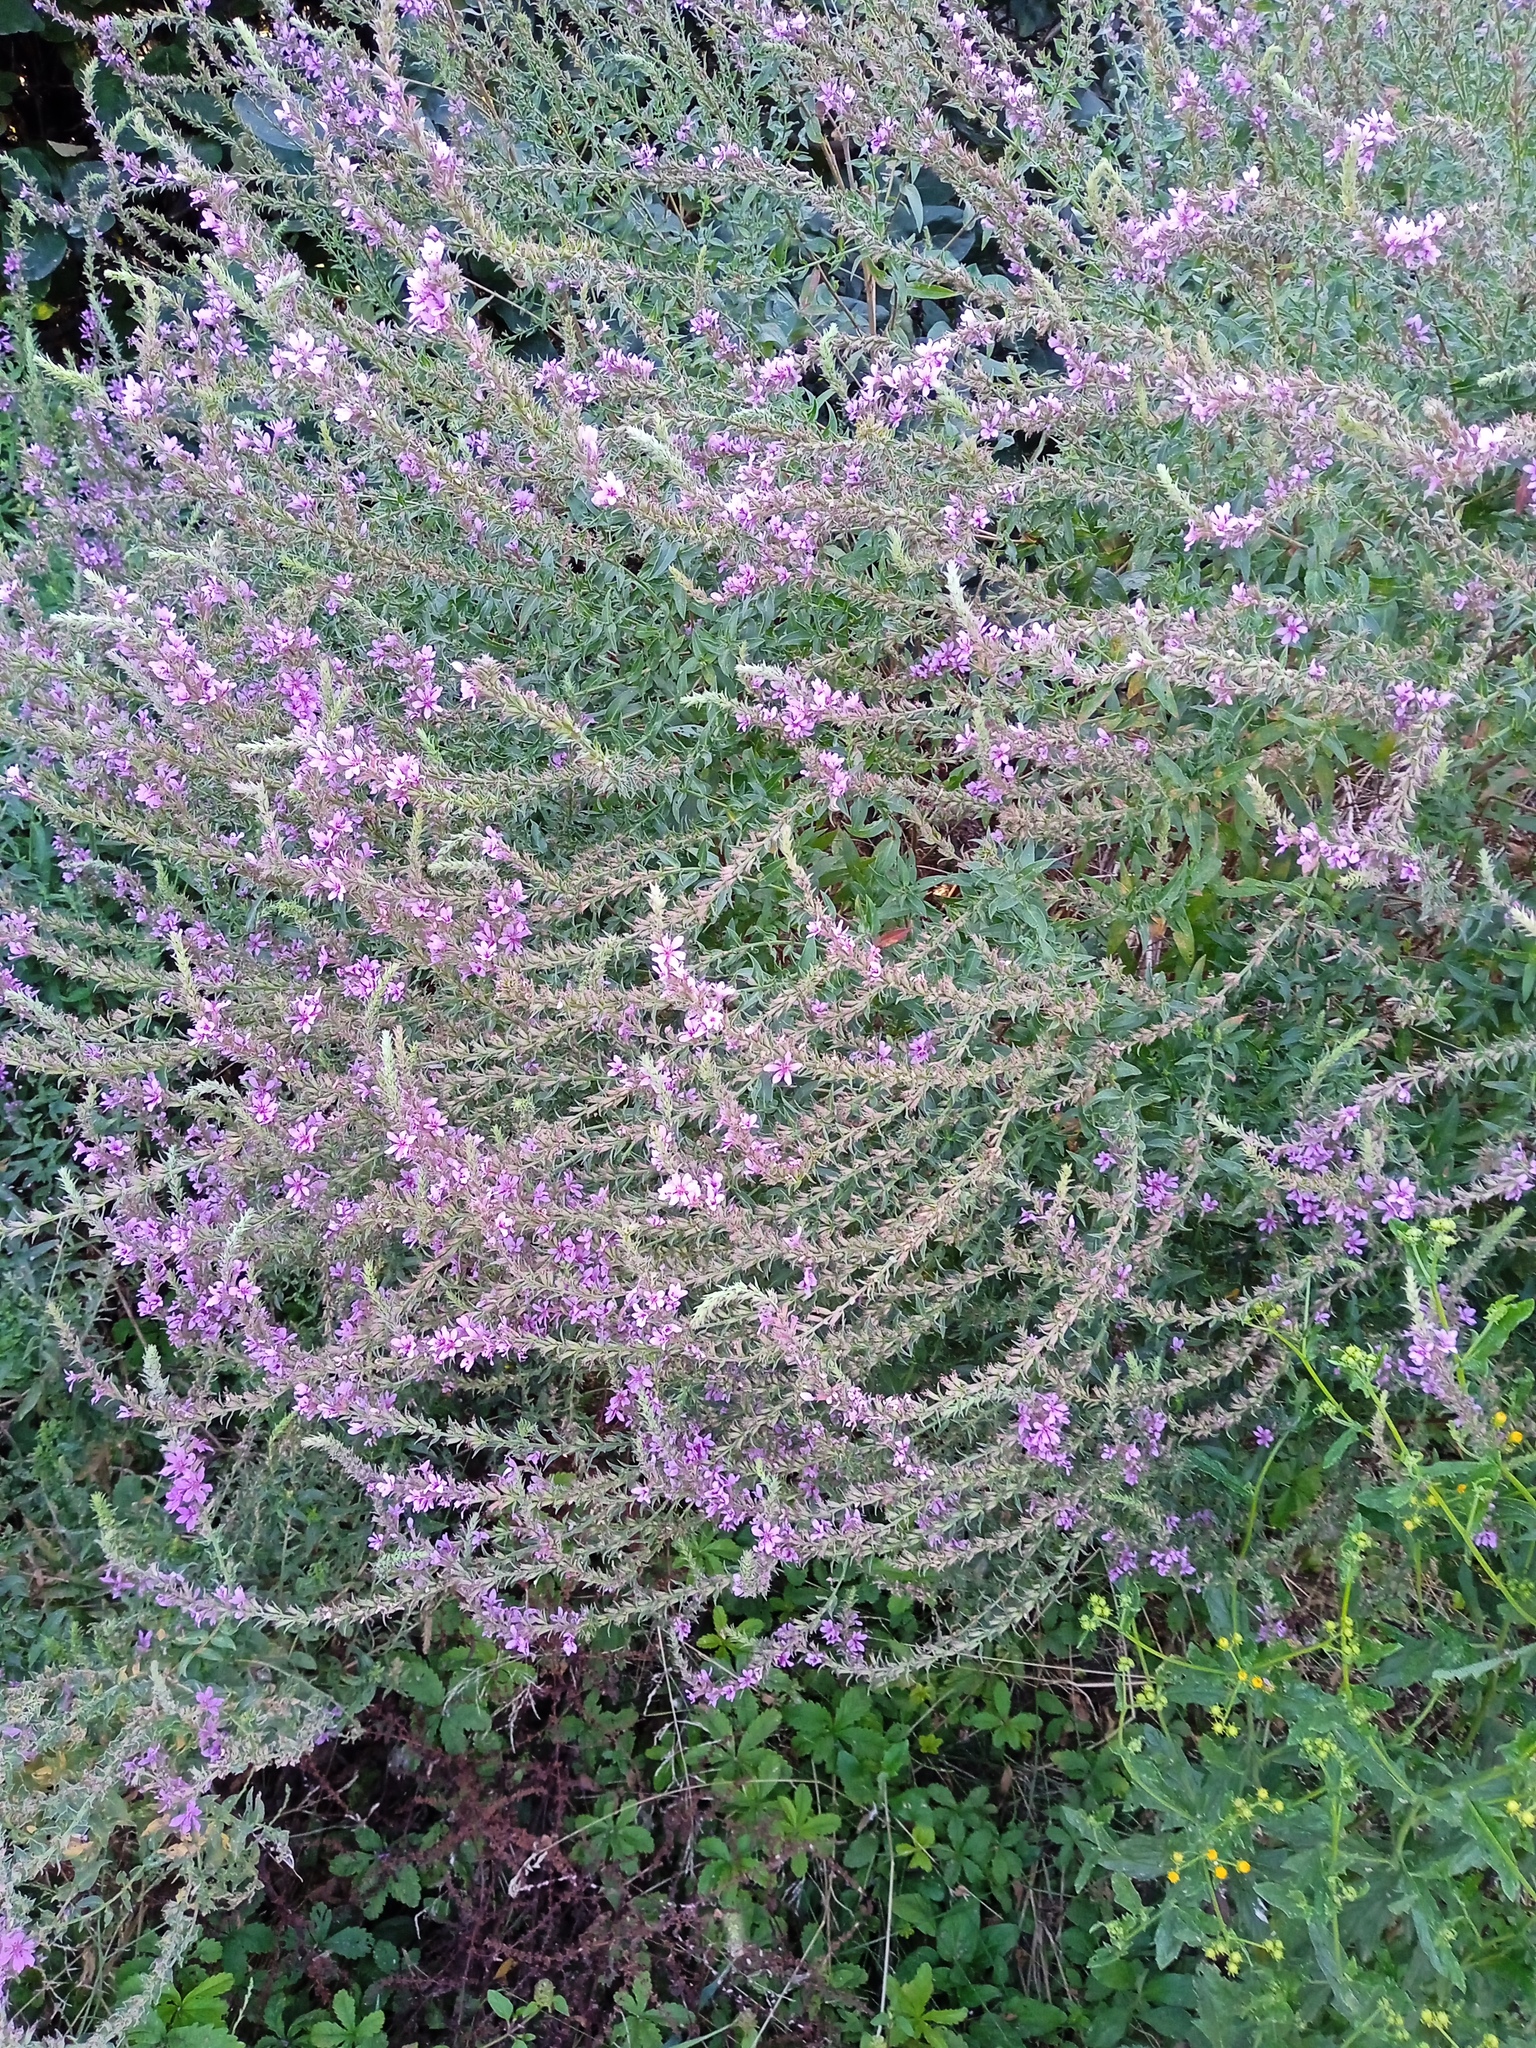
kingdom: Plantae
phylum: Tracheophyta
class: Magnoliopsida
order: Myrtales
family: Lythraceae
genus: Lythrum
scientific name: Lythrum salicaria
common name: Purple loosestrife
